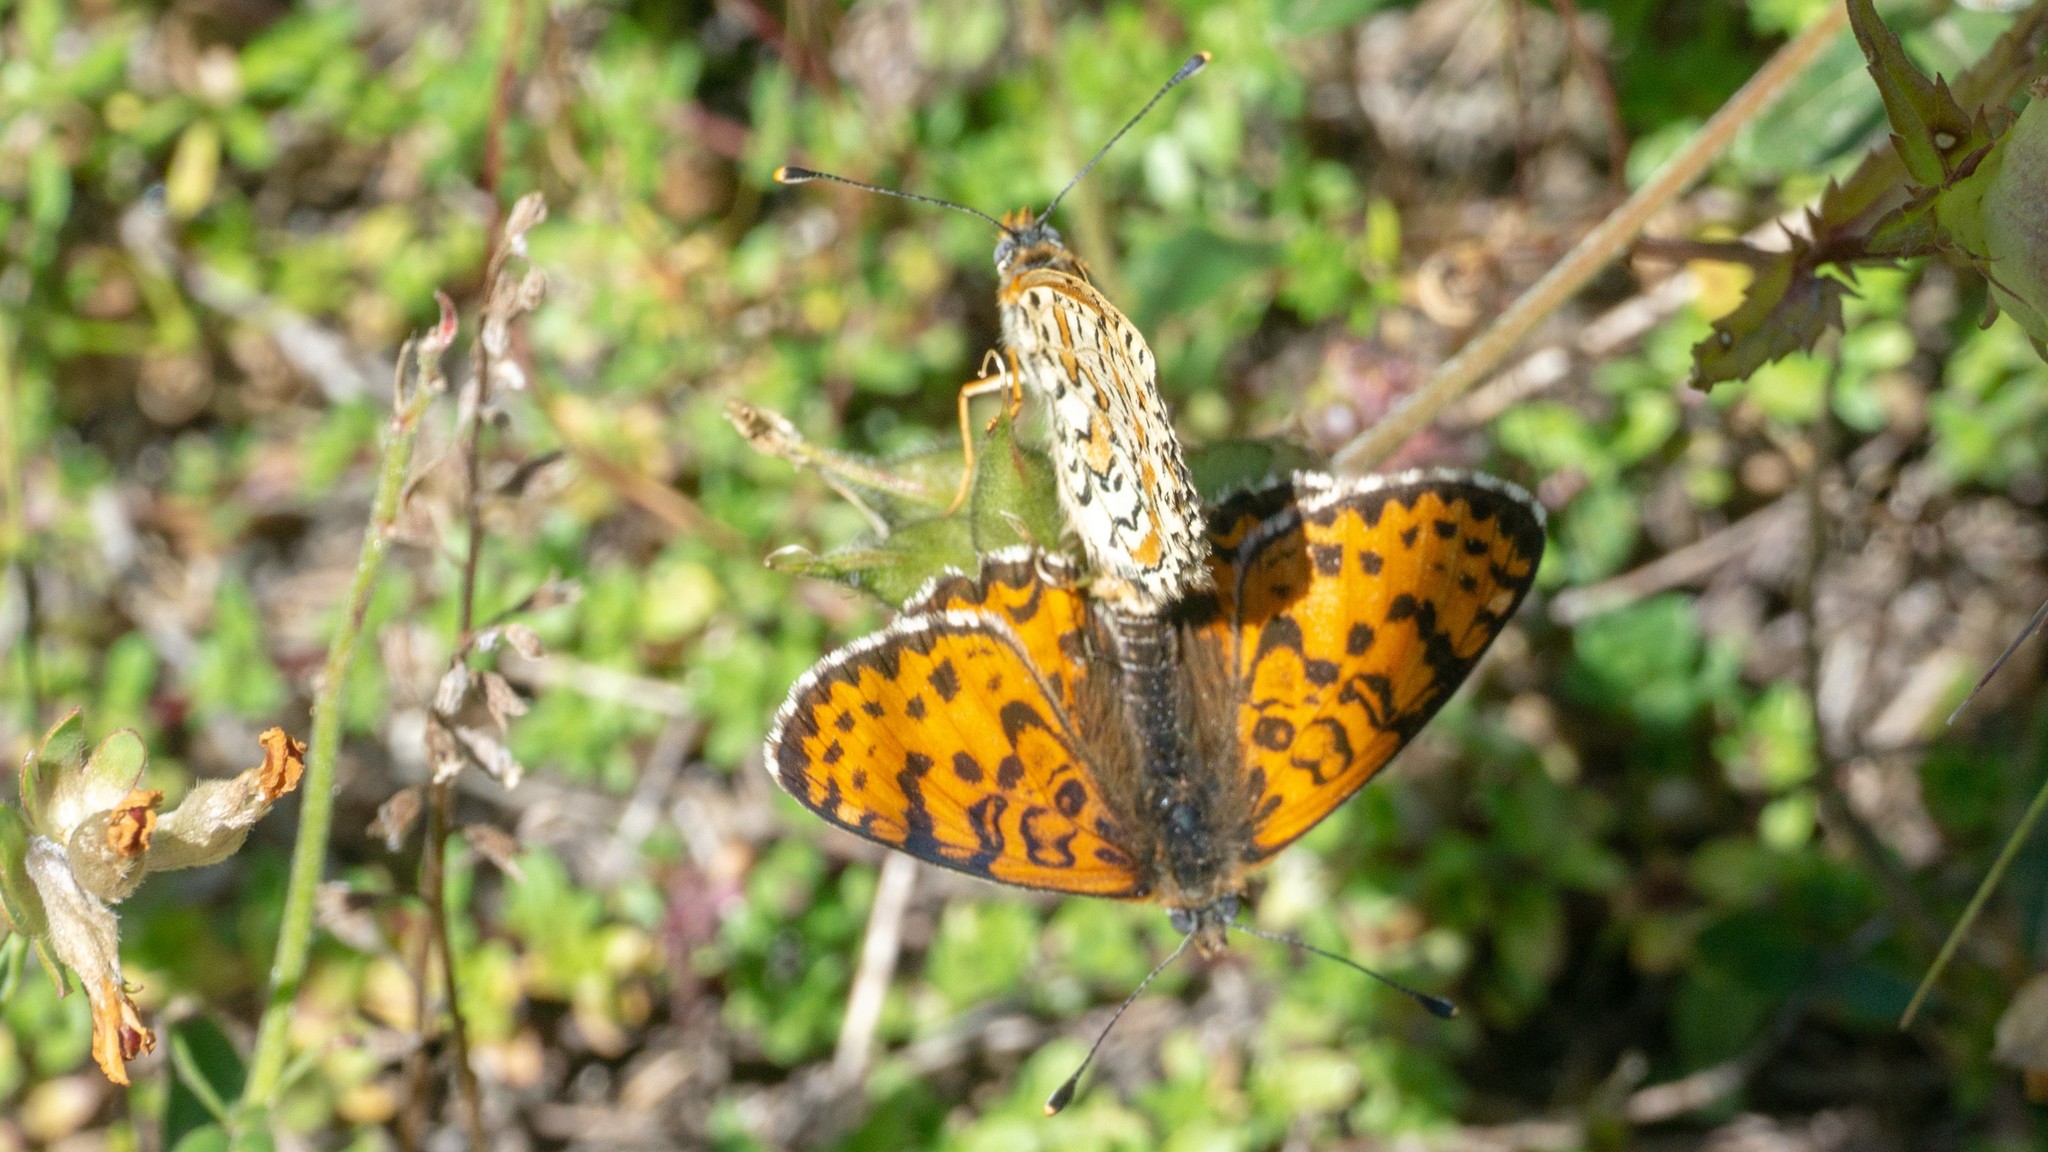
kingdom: Animalia
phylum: Arthropoda
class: Insecta
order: Lepidoptera
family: Nymphalidae
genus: Melitaea
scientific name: Melitaea didyma
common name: Spotted fritillary
